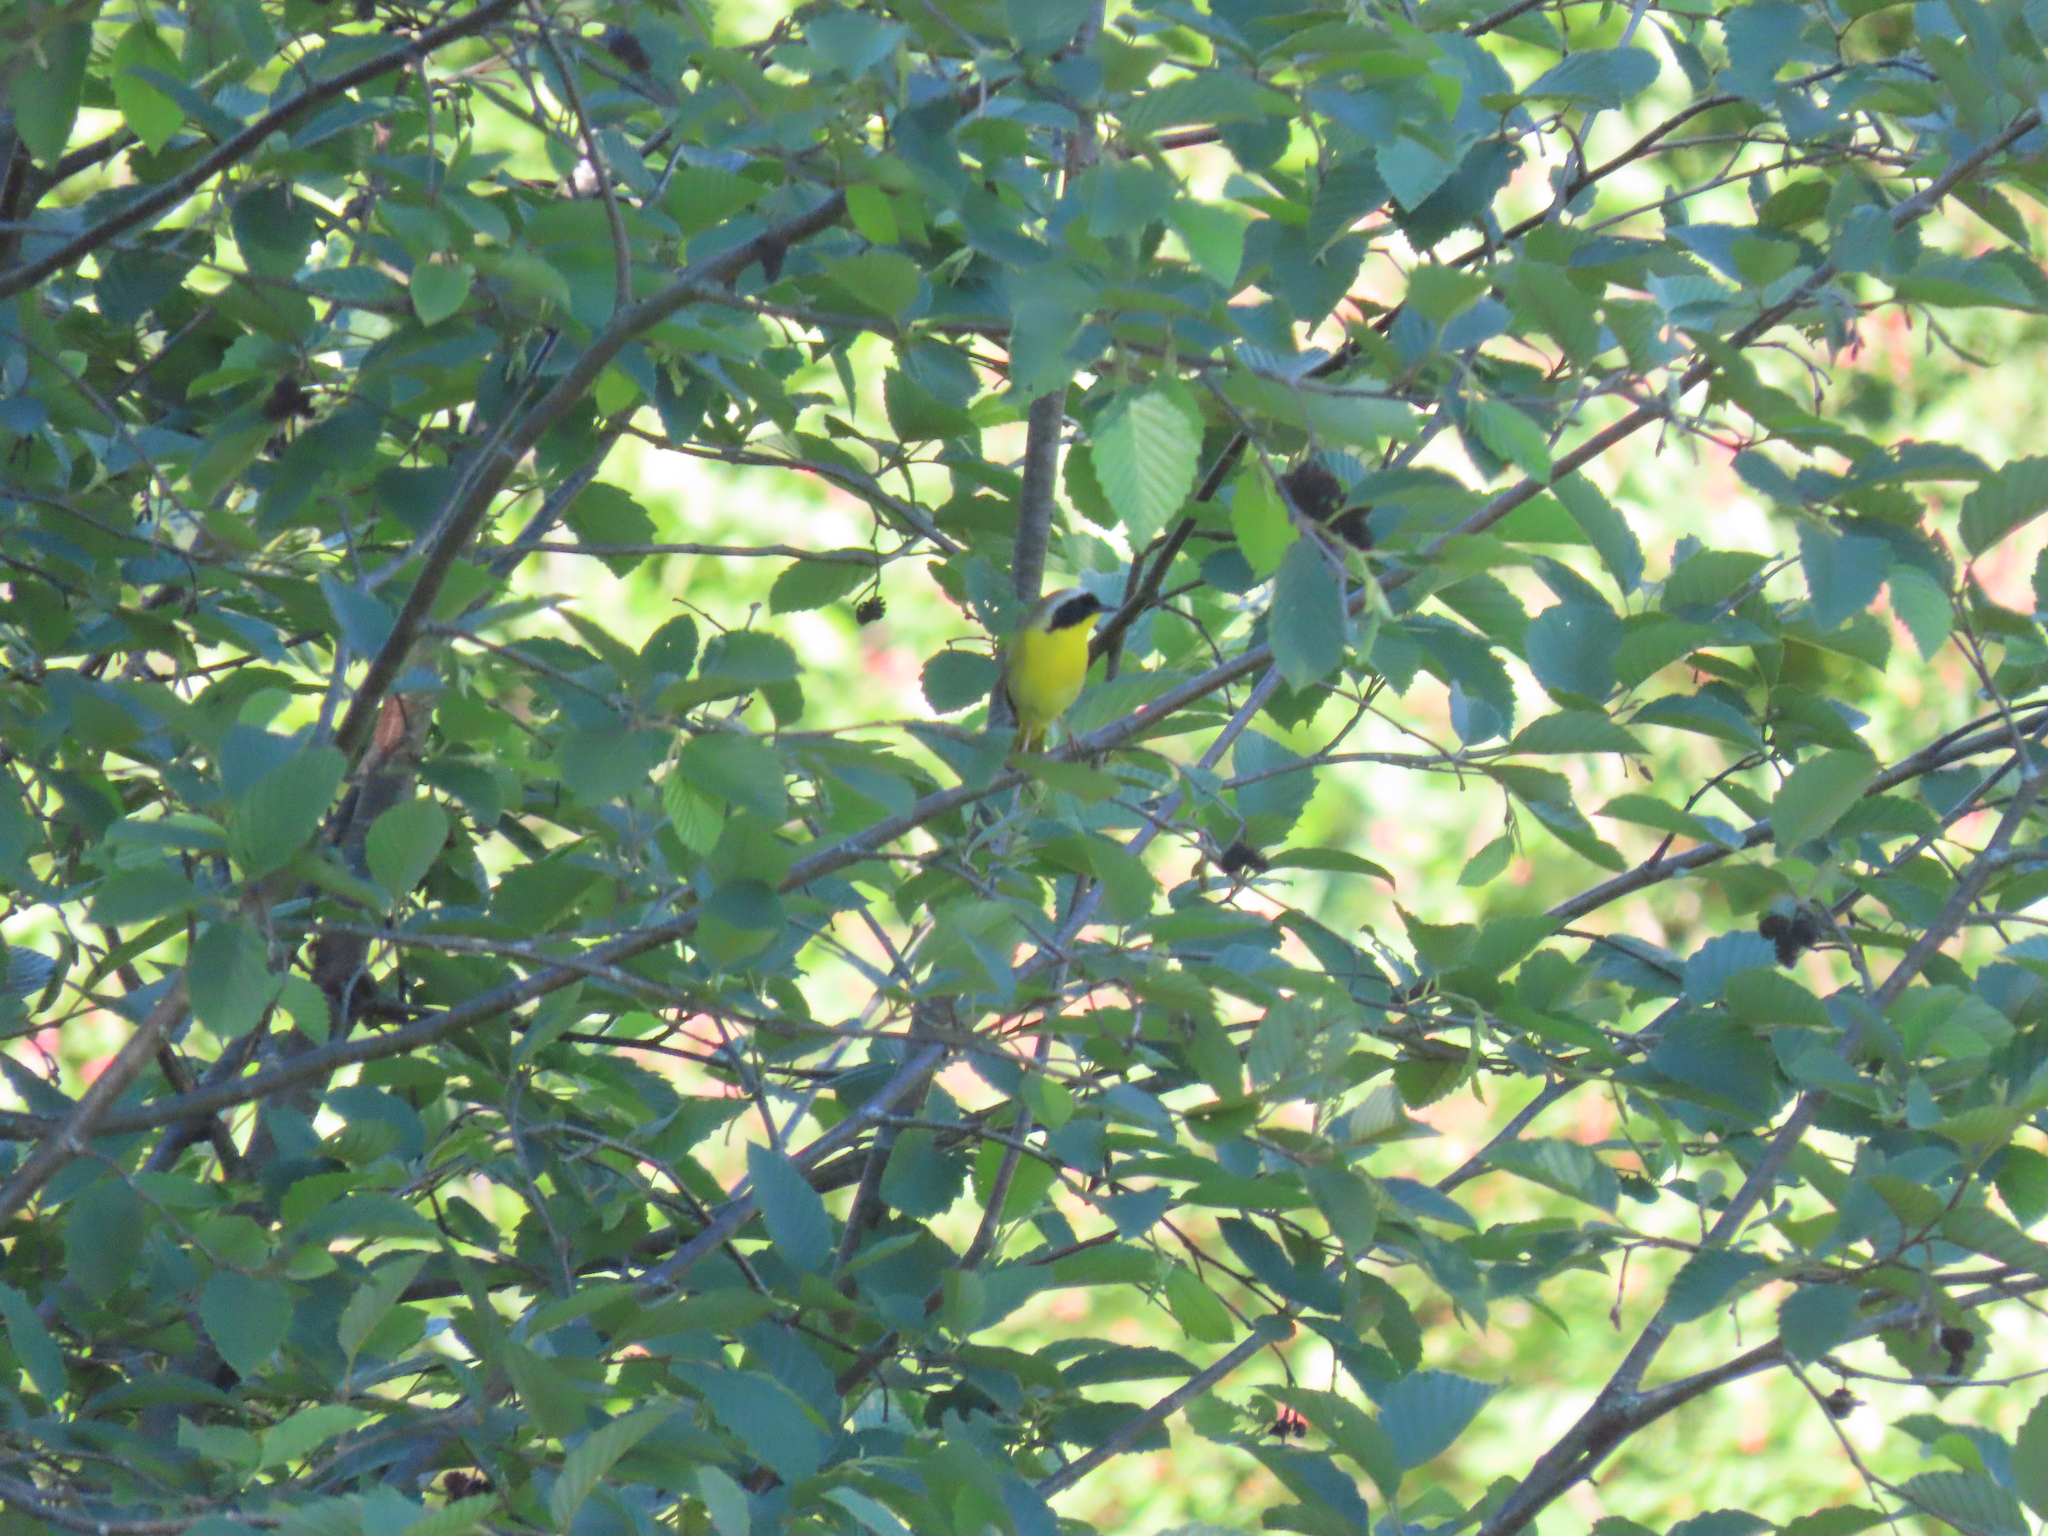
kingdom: Animalia
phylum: Chordata
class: Aves
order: Passeriformes
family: Parulidae
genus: Geothlypis
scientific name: Geothlypis trichas
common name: Common yellowthroat
